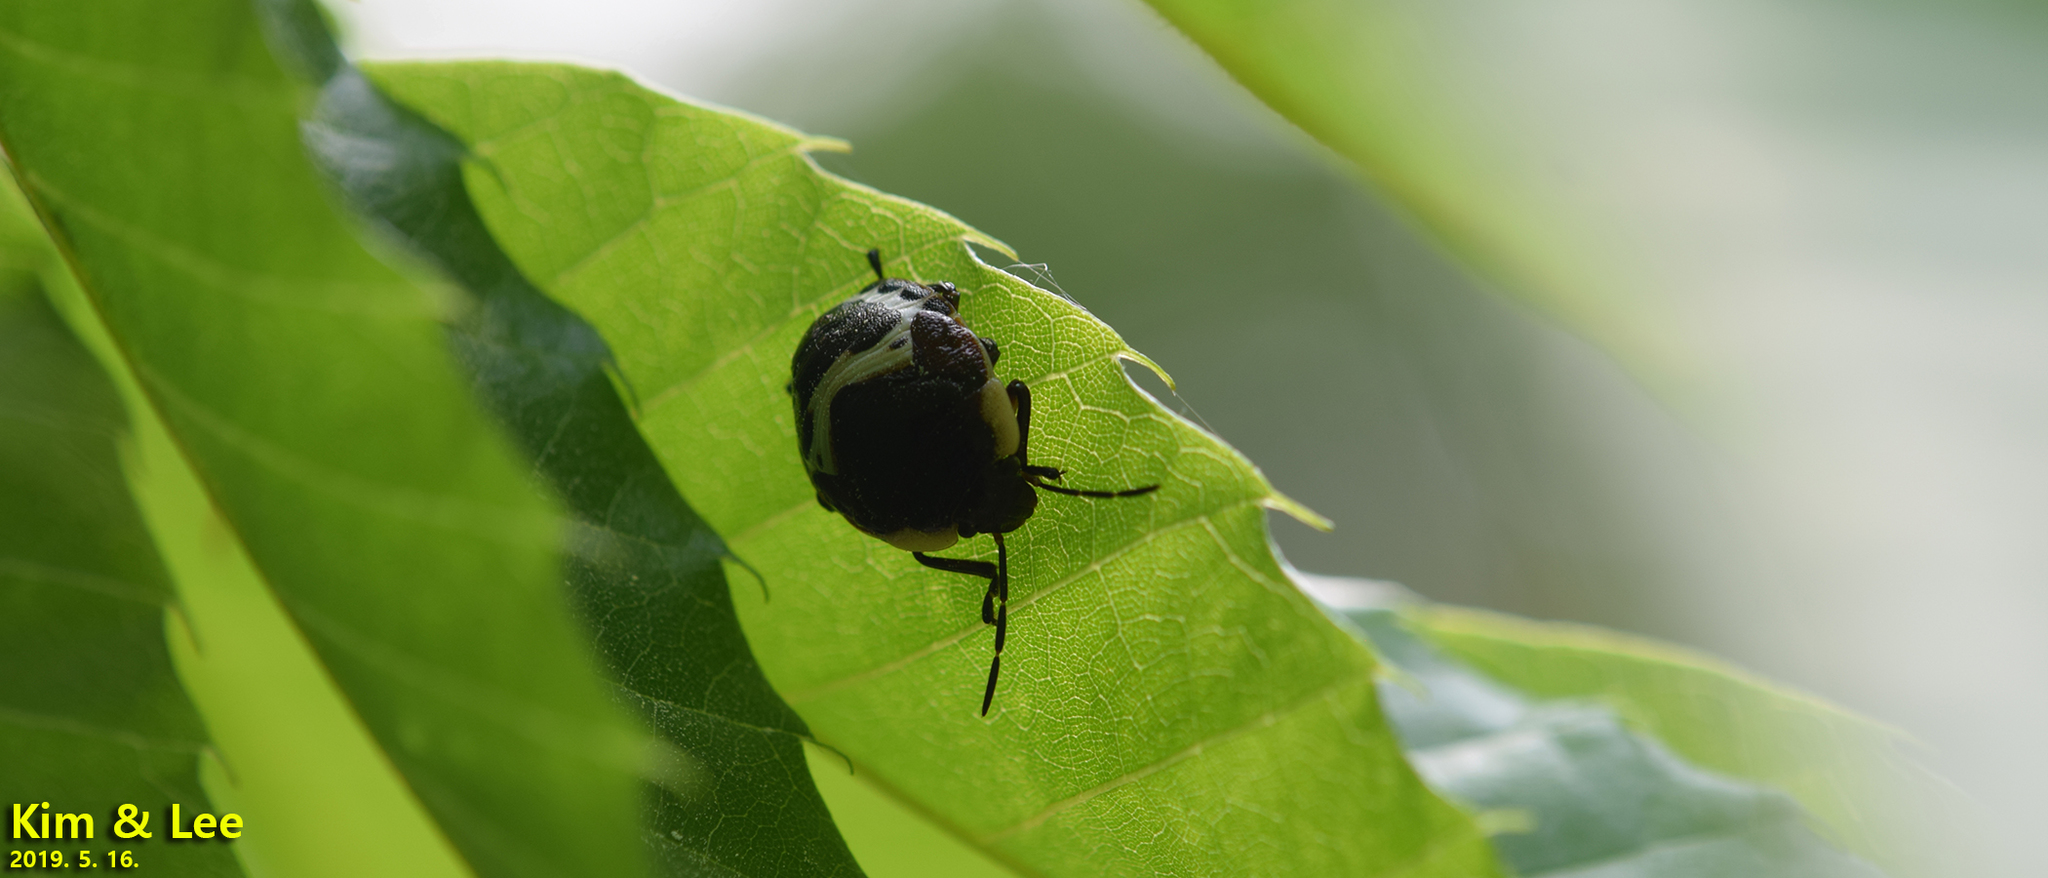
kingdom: Animalia
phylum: Arthropoda
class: Insecta
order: Hemiptera
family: Scutelleridae
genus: Poecilocoris
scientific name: Poecilocoris lewisi
